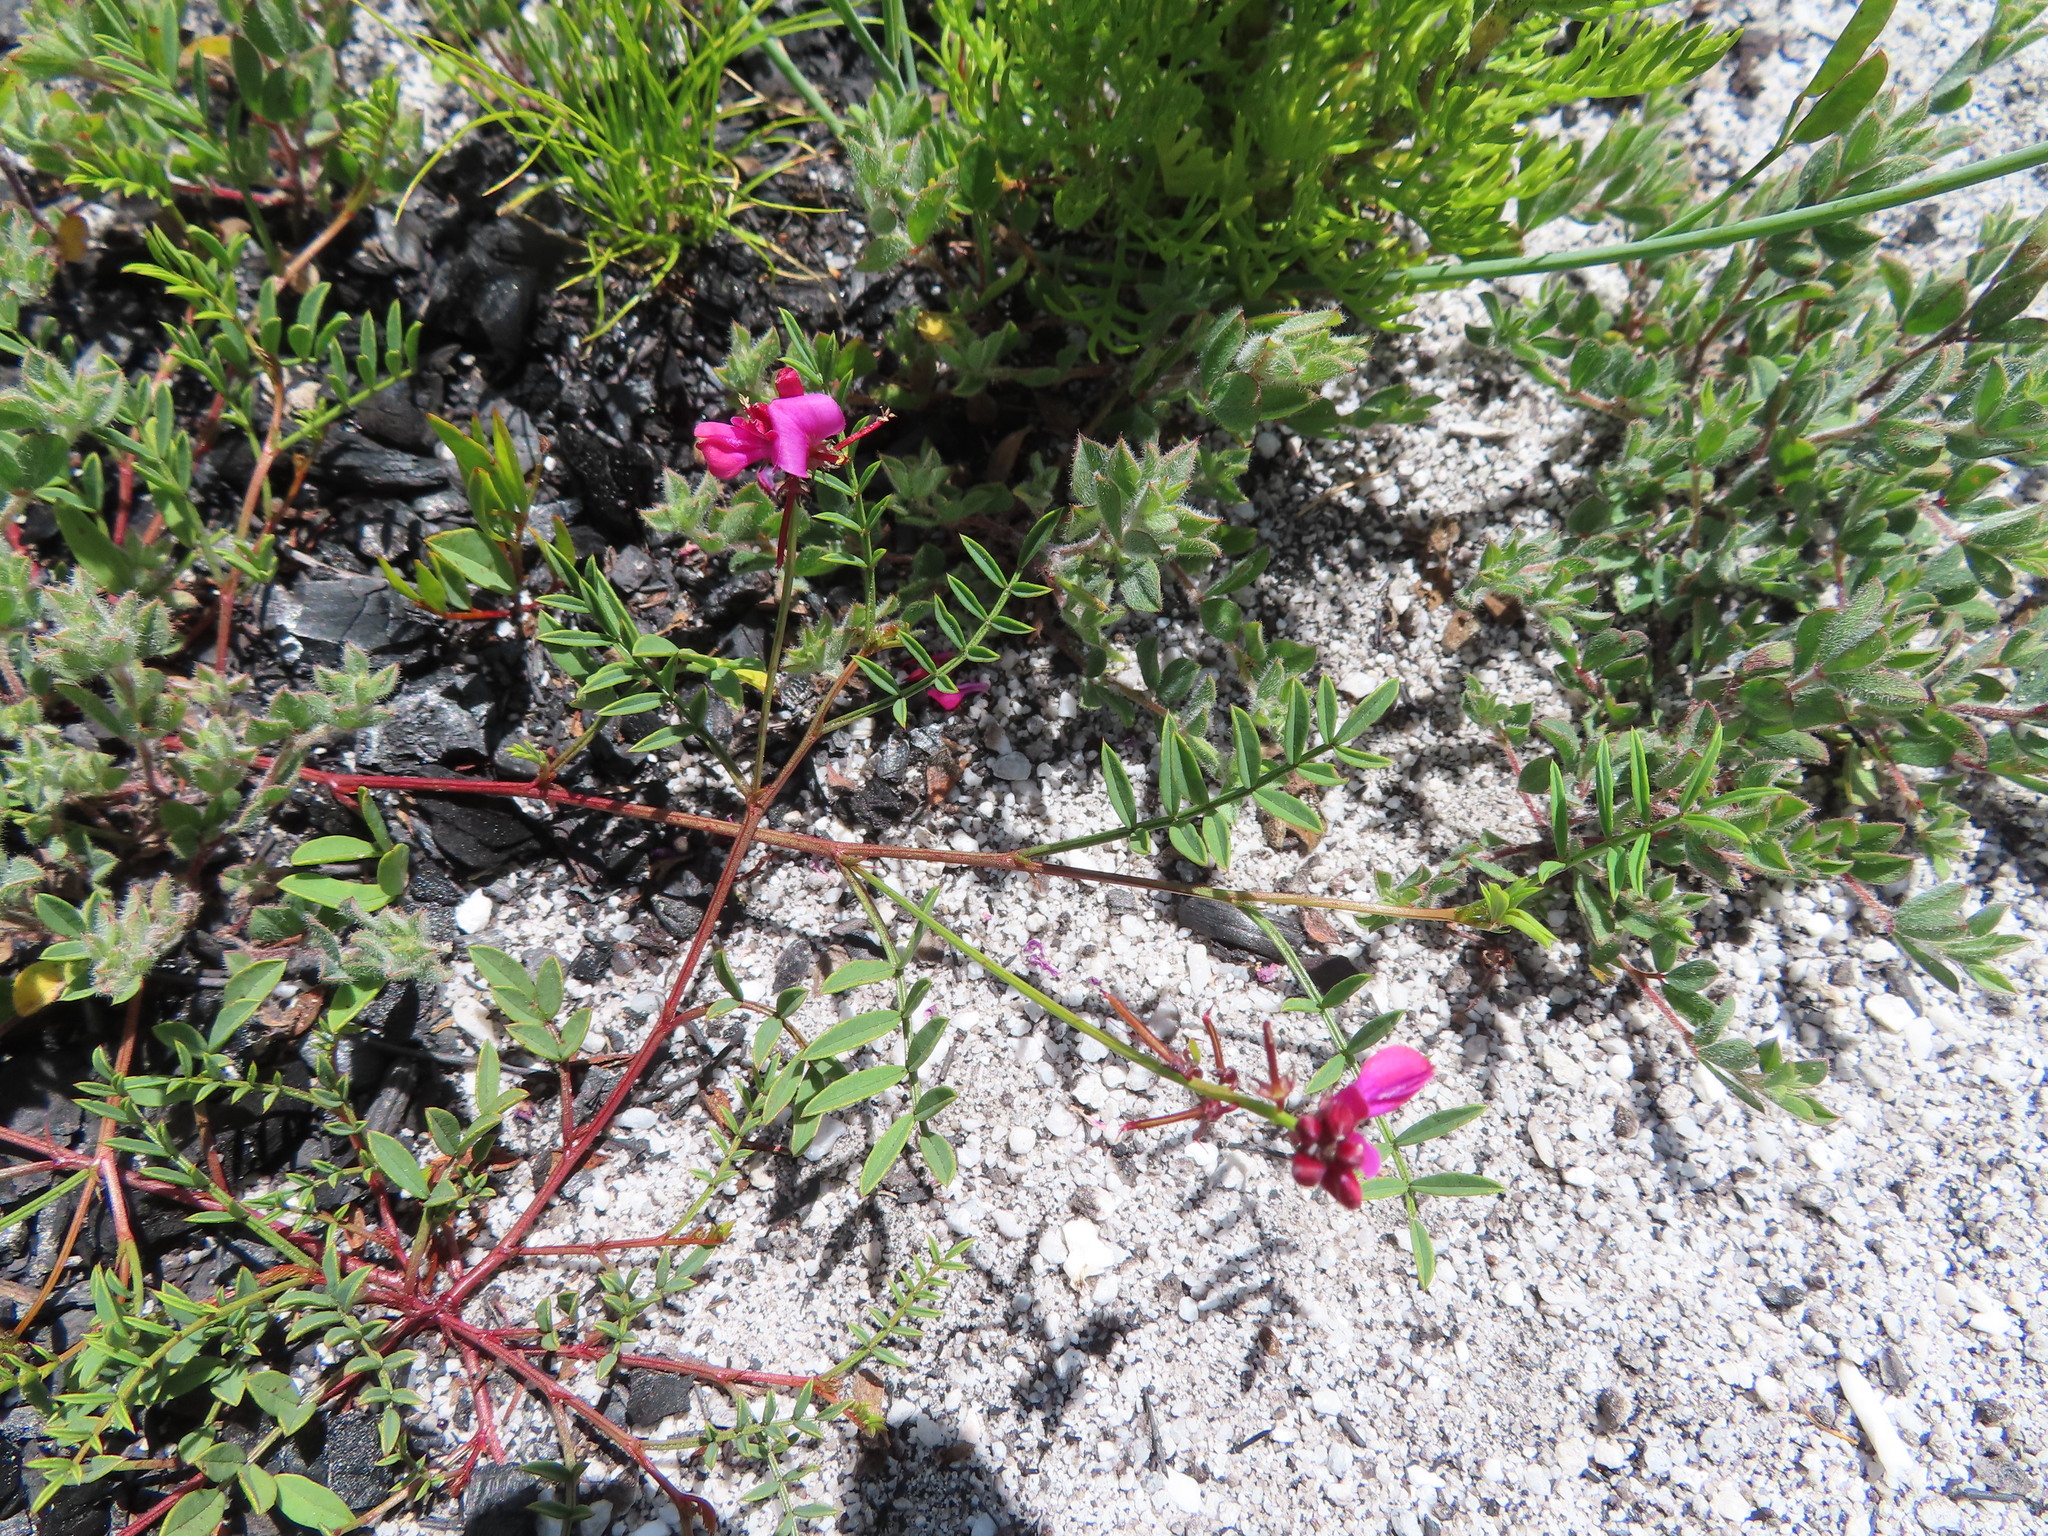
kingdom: Plantae
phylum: Tracheophyta
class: Magnoliopsida
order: Fabales
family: Fabaceae
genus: Indigofera
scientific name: Indigofera capillaris
